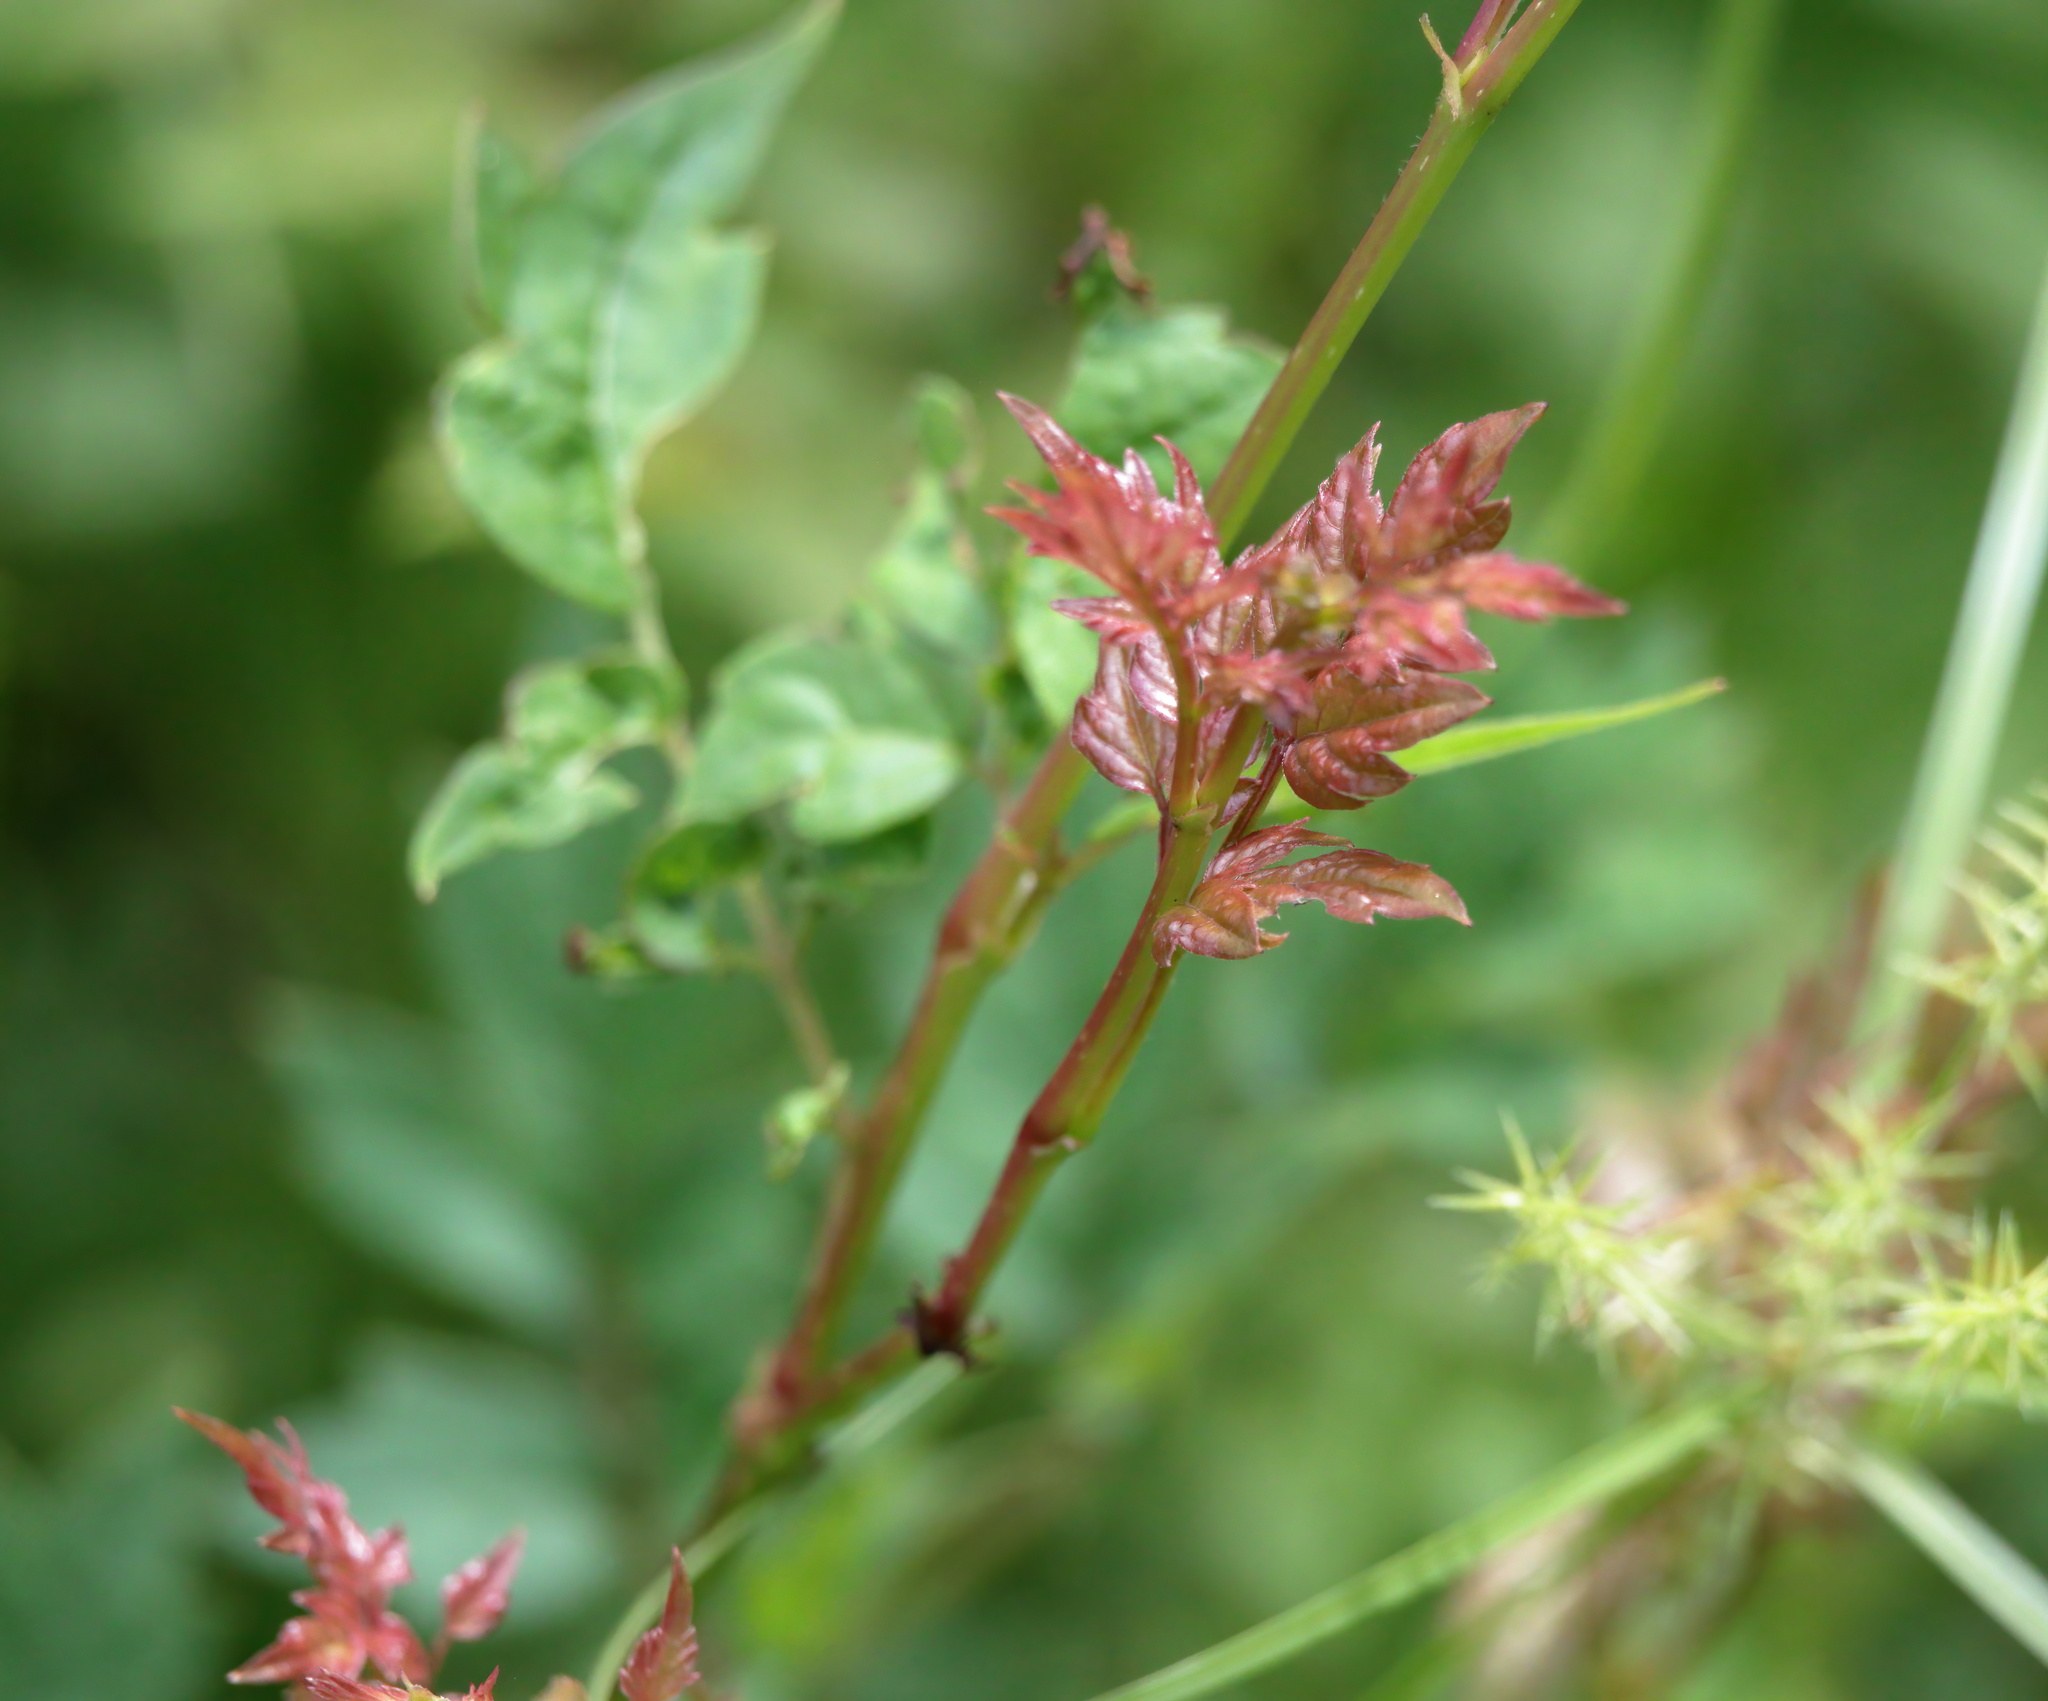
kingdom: Plantae
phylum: Tracheophyta
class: Magnoliopsida
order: Vitales
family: Vitaceae
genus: Nekemias
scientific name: Nekemias arborea
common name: Peppervine
